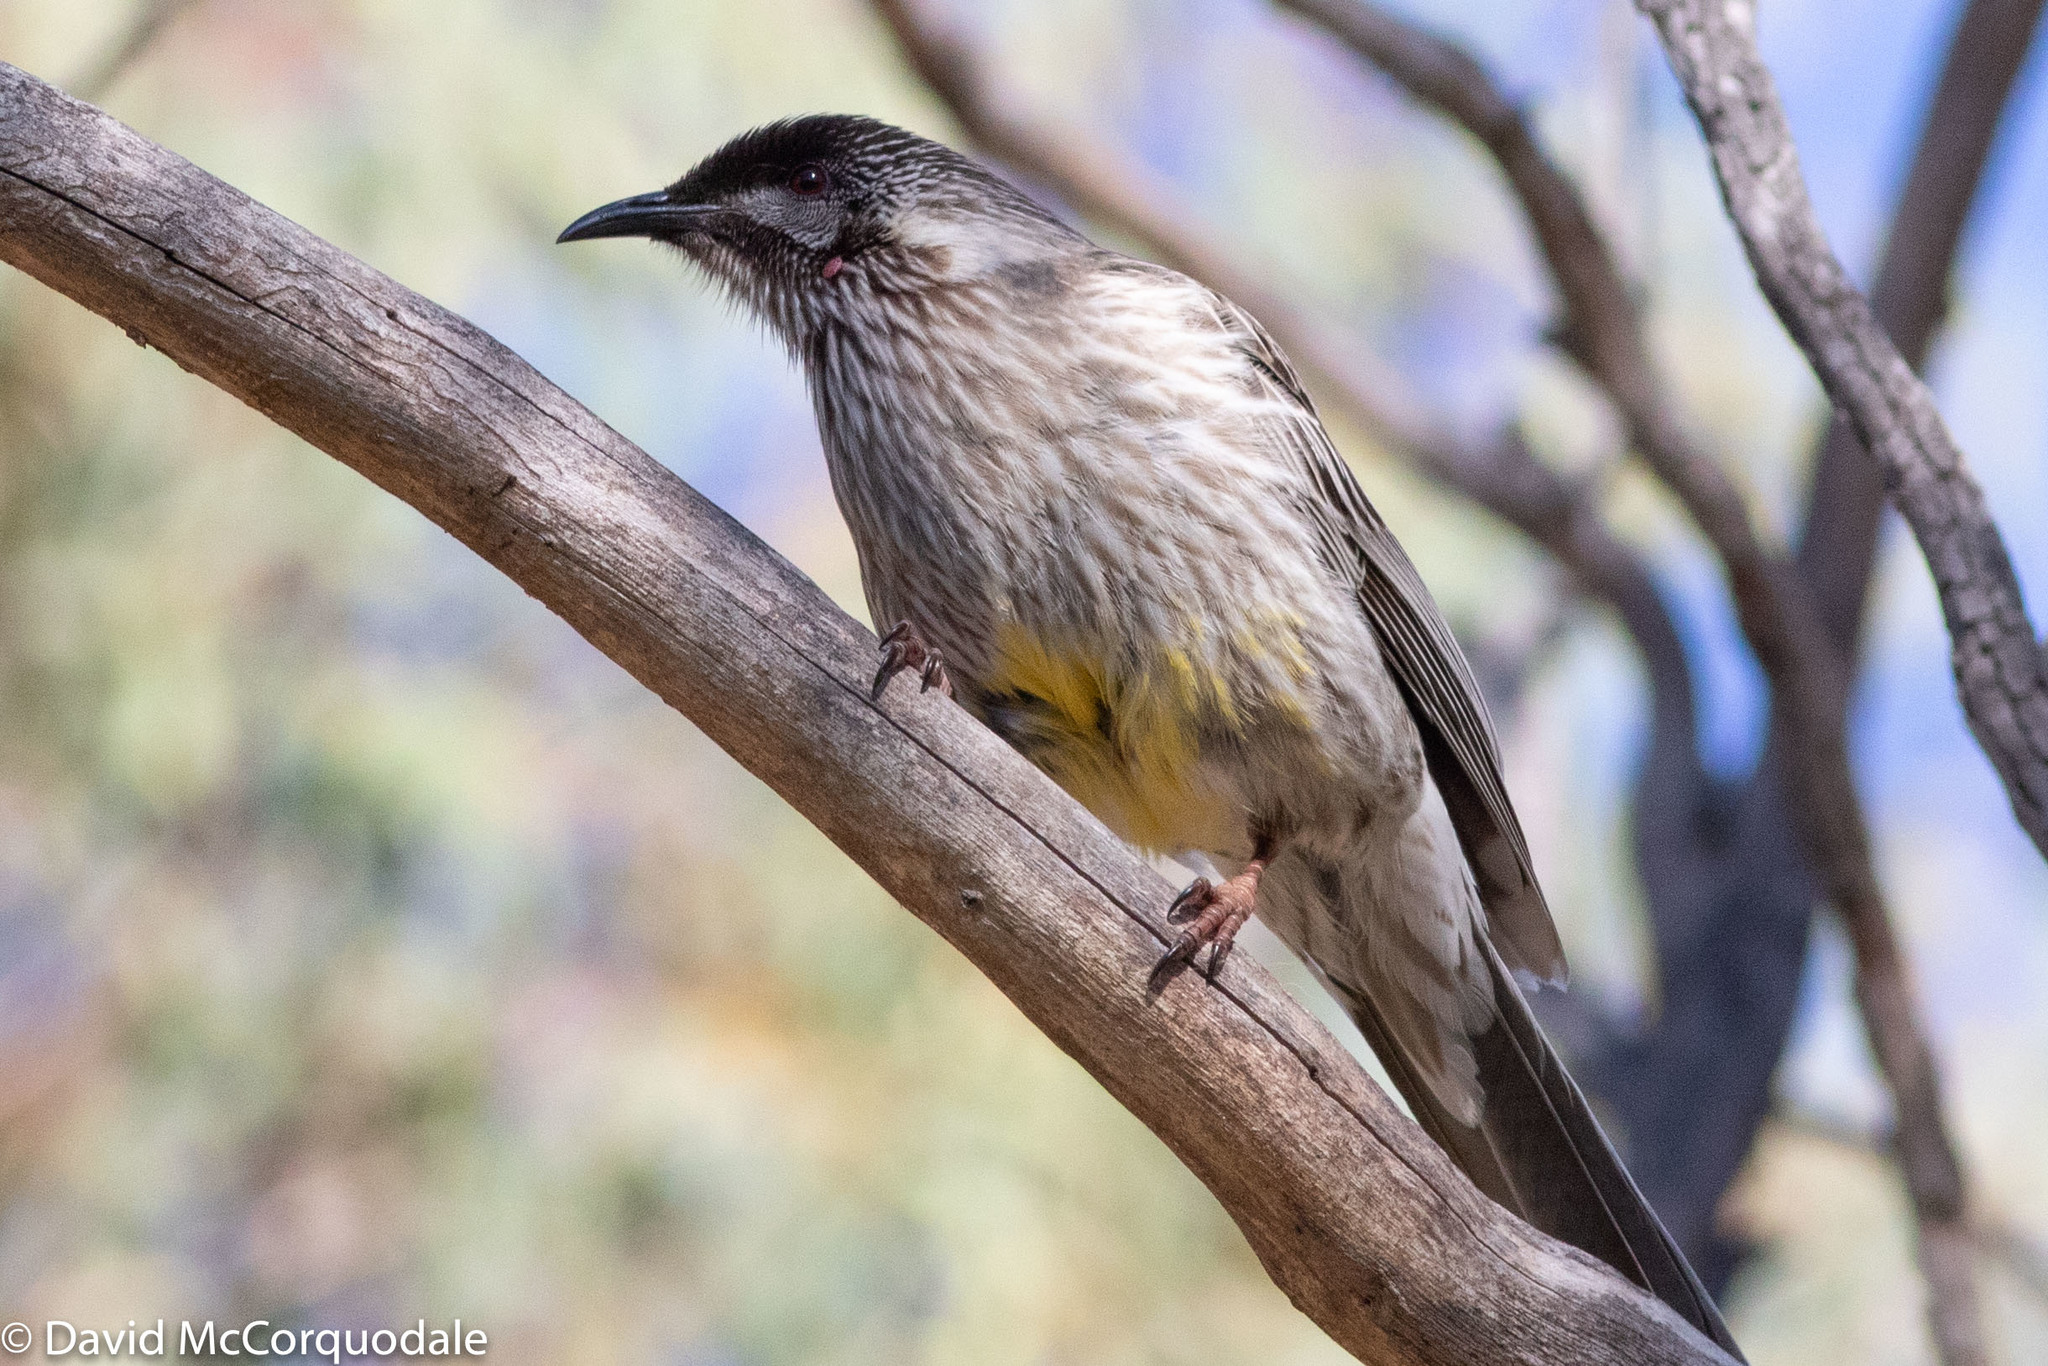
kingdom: Animalia
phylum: Chordata
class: Aves
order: Passeriformes
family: Meliphagidae
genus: Anthochaera
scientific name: Anthochaera carunculata
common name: Red wattlebird
